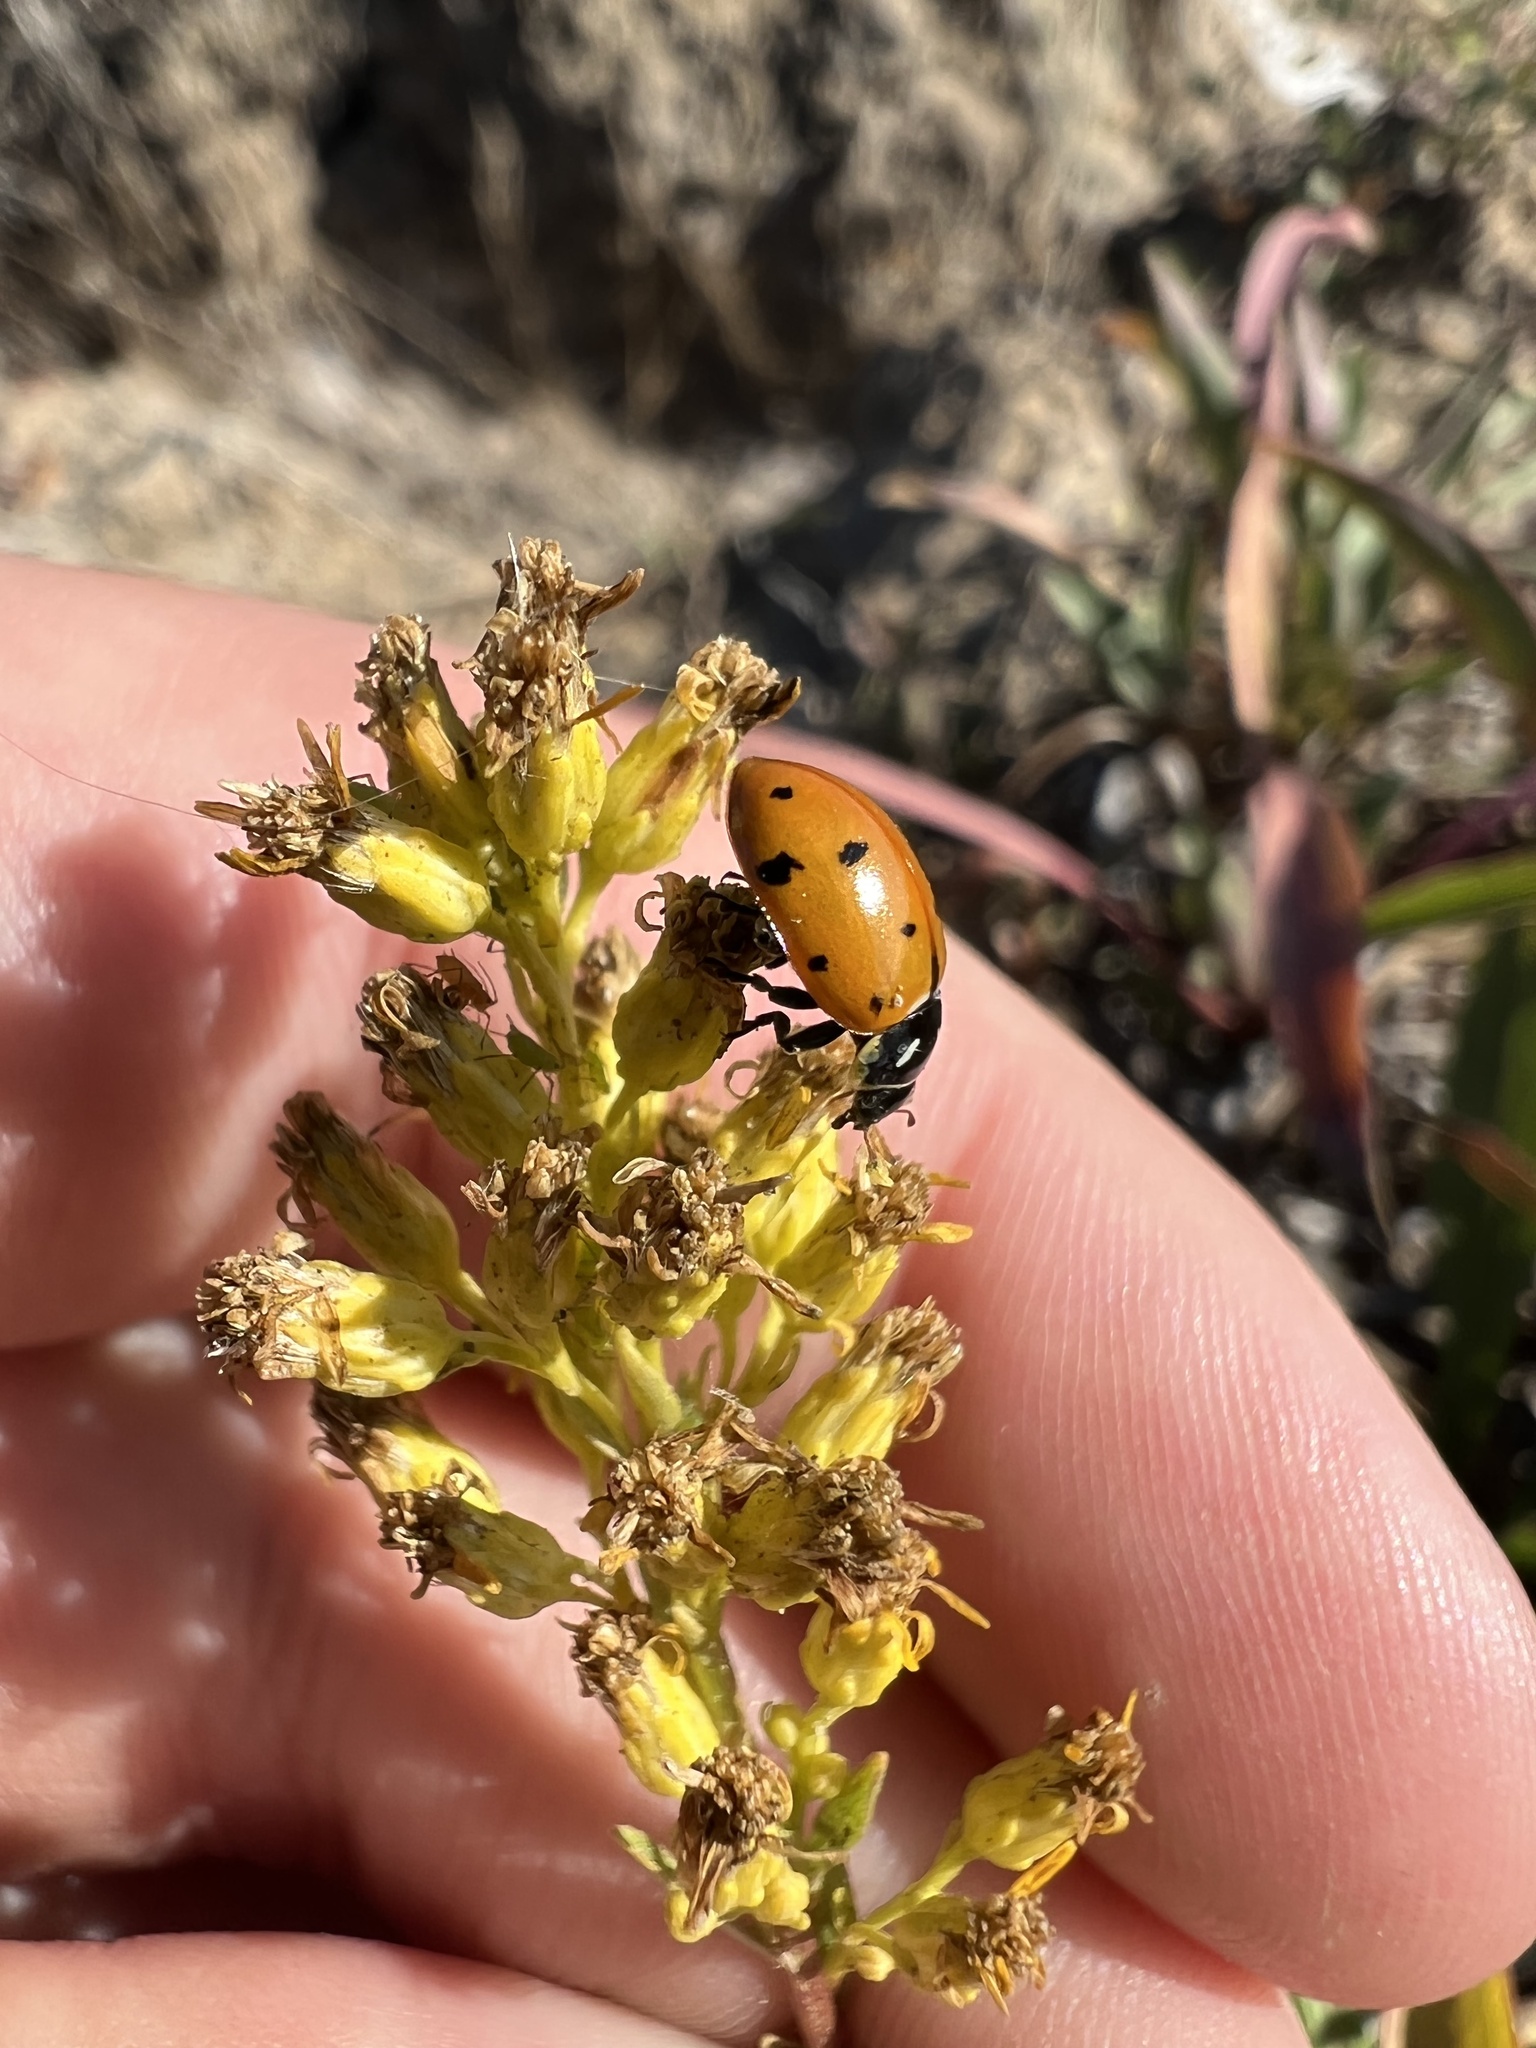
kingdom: Animalia
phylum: Arthropoda
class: Insecta
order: Coleoptera
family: Coccinellidae
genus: Hippodamia
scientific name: Hippodamia convergens
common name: Convergent lady beetle
